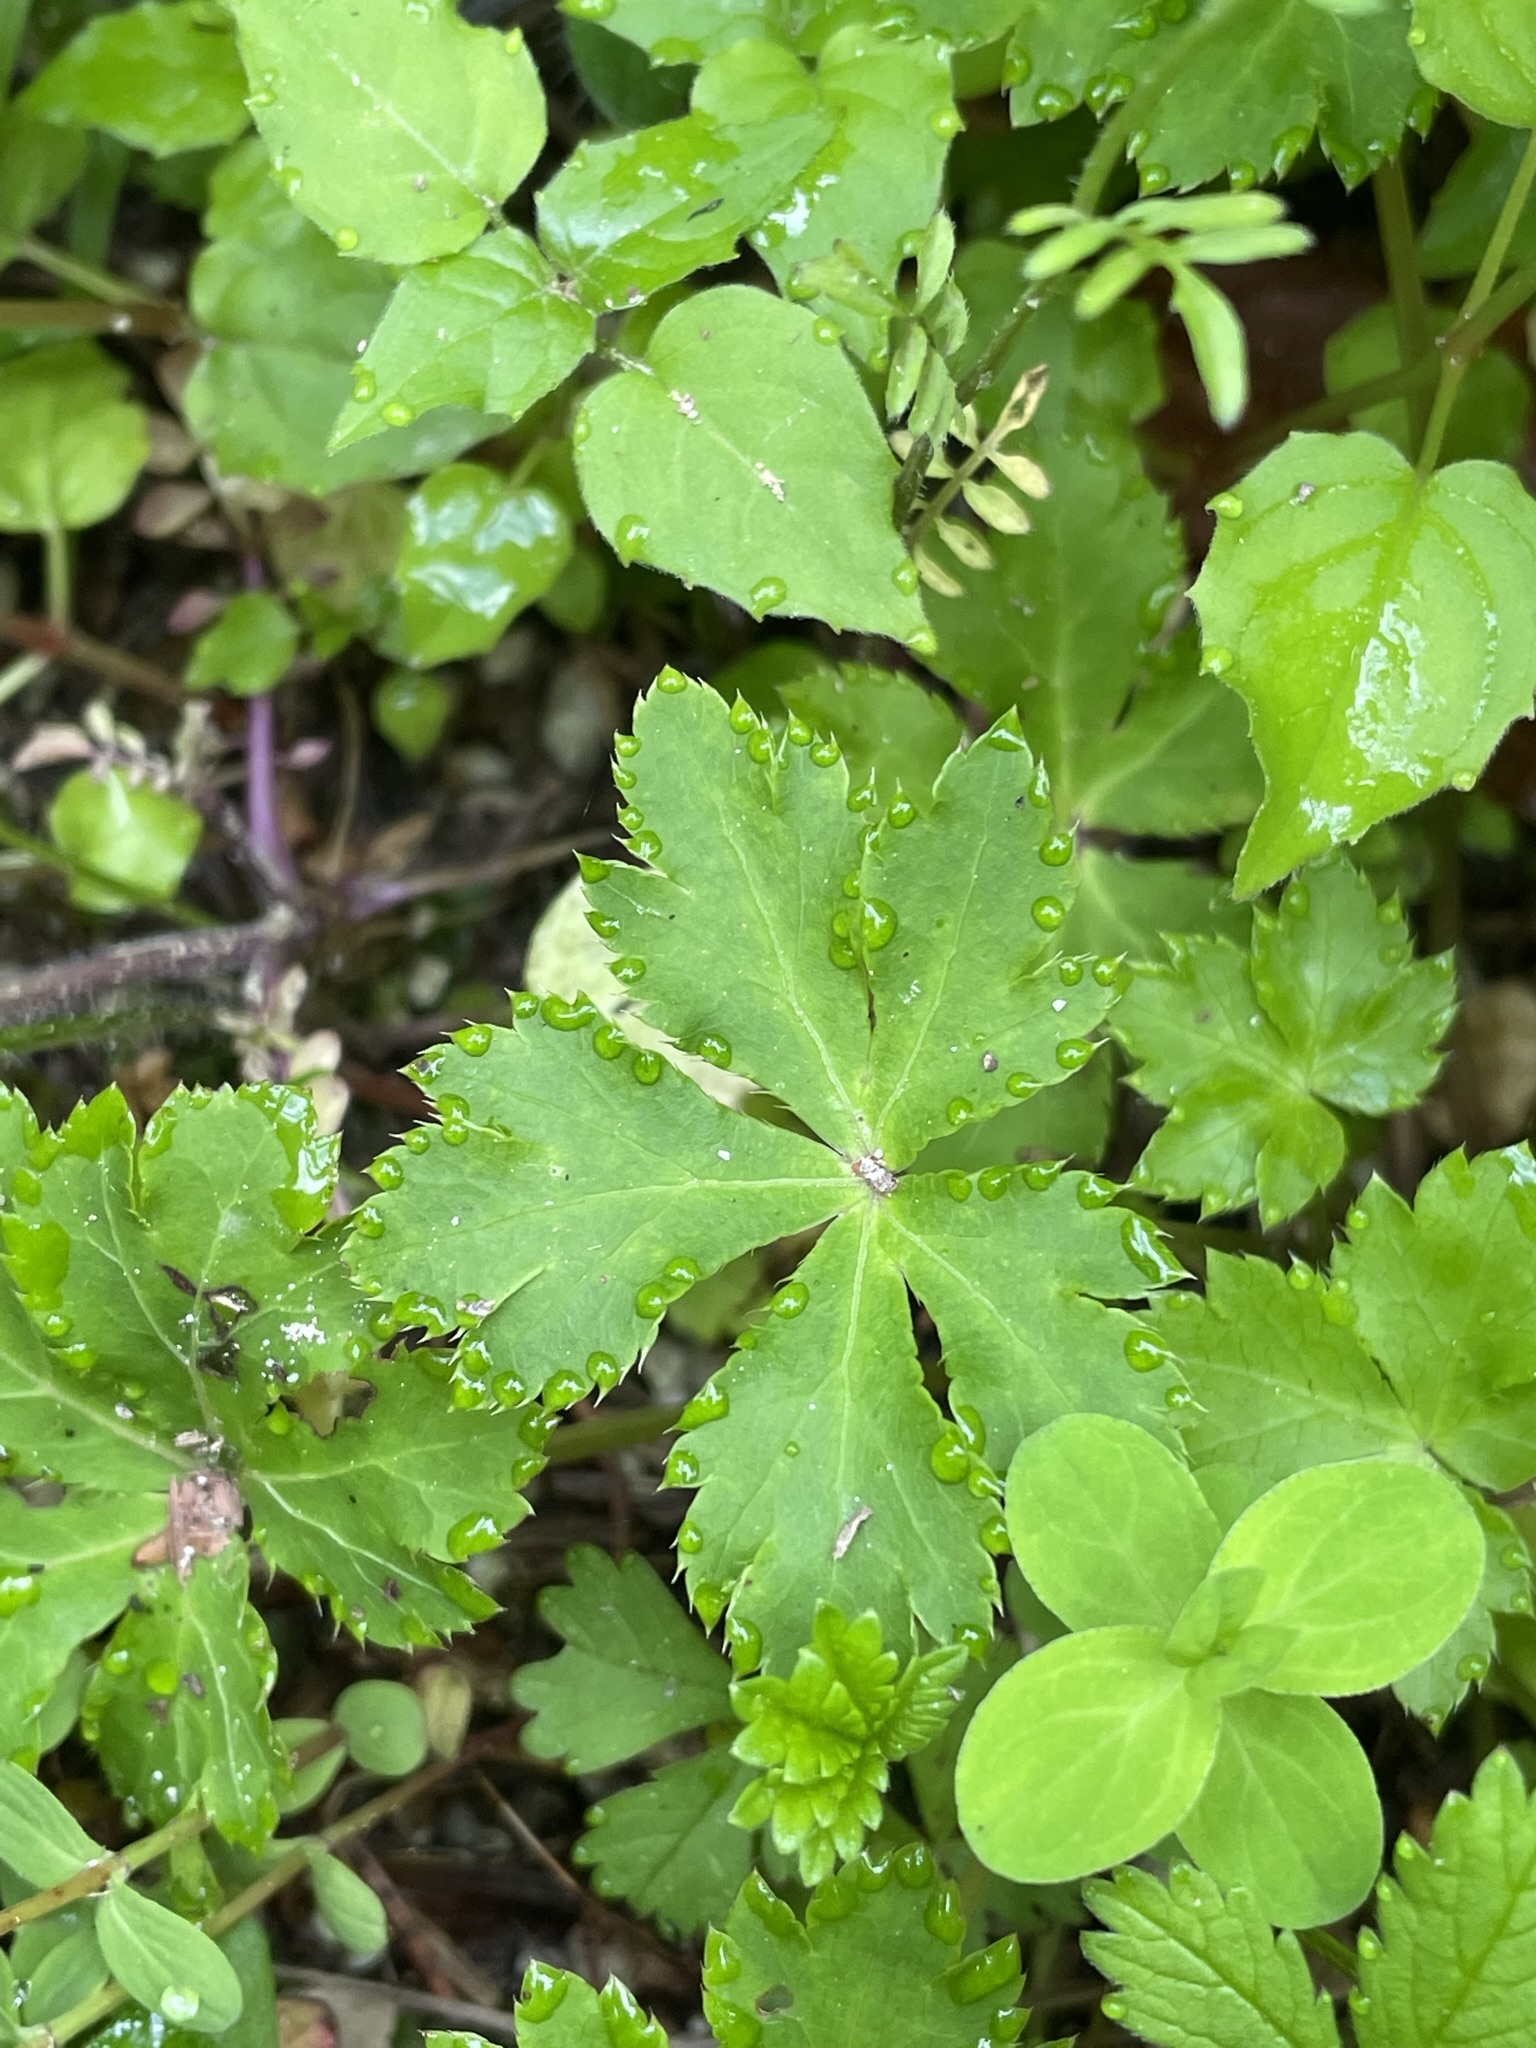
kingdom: Plantae
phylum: Tracheophyta
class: Magnoliopsida
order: Apiales
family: Apiaceae
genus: Sanicula
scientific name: Sanicula europaea
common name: Sanicle
